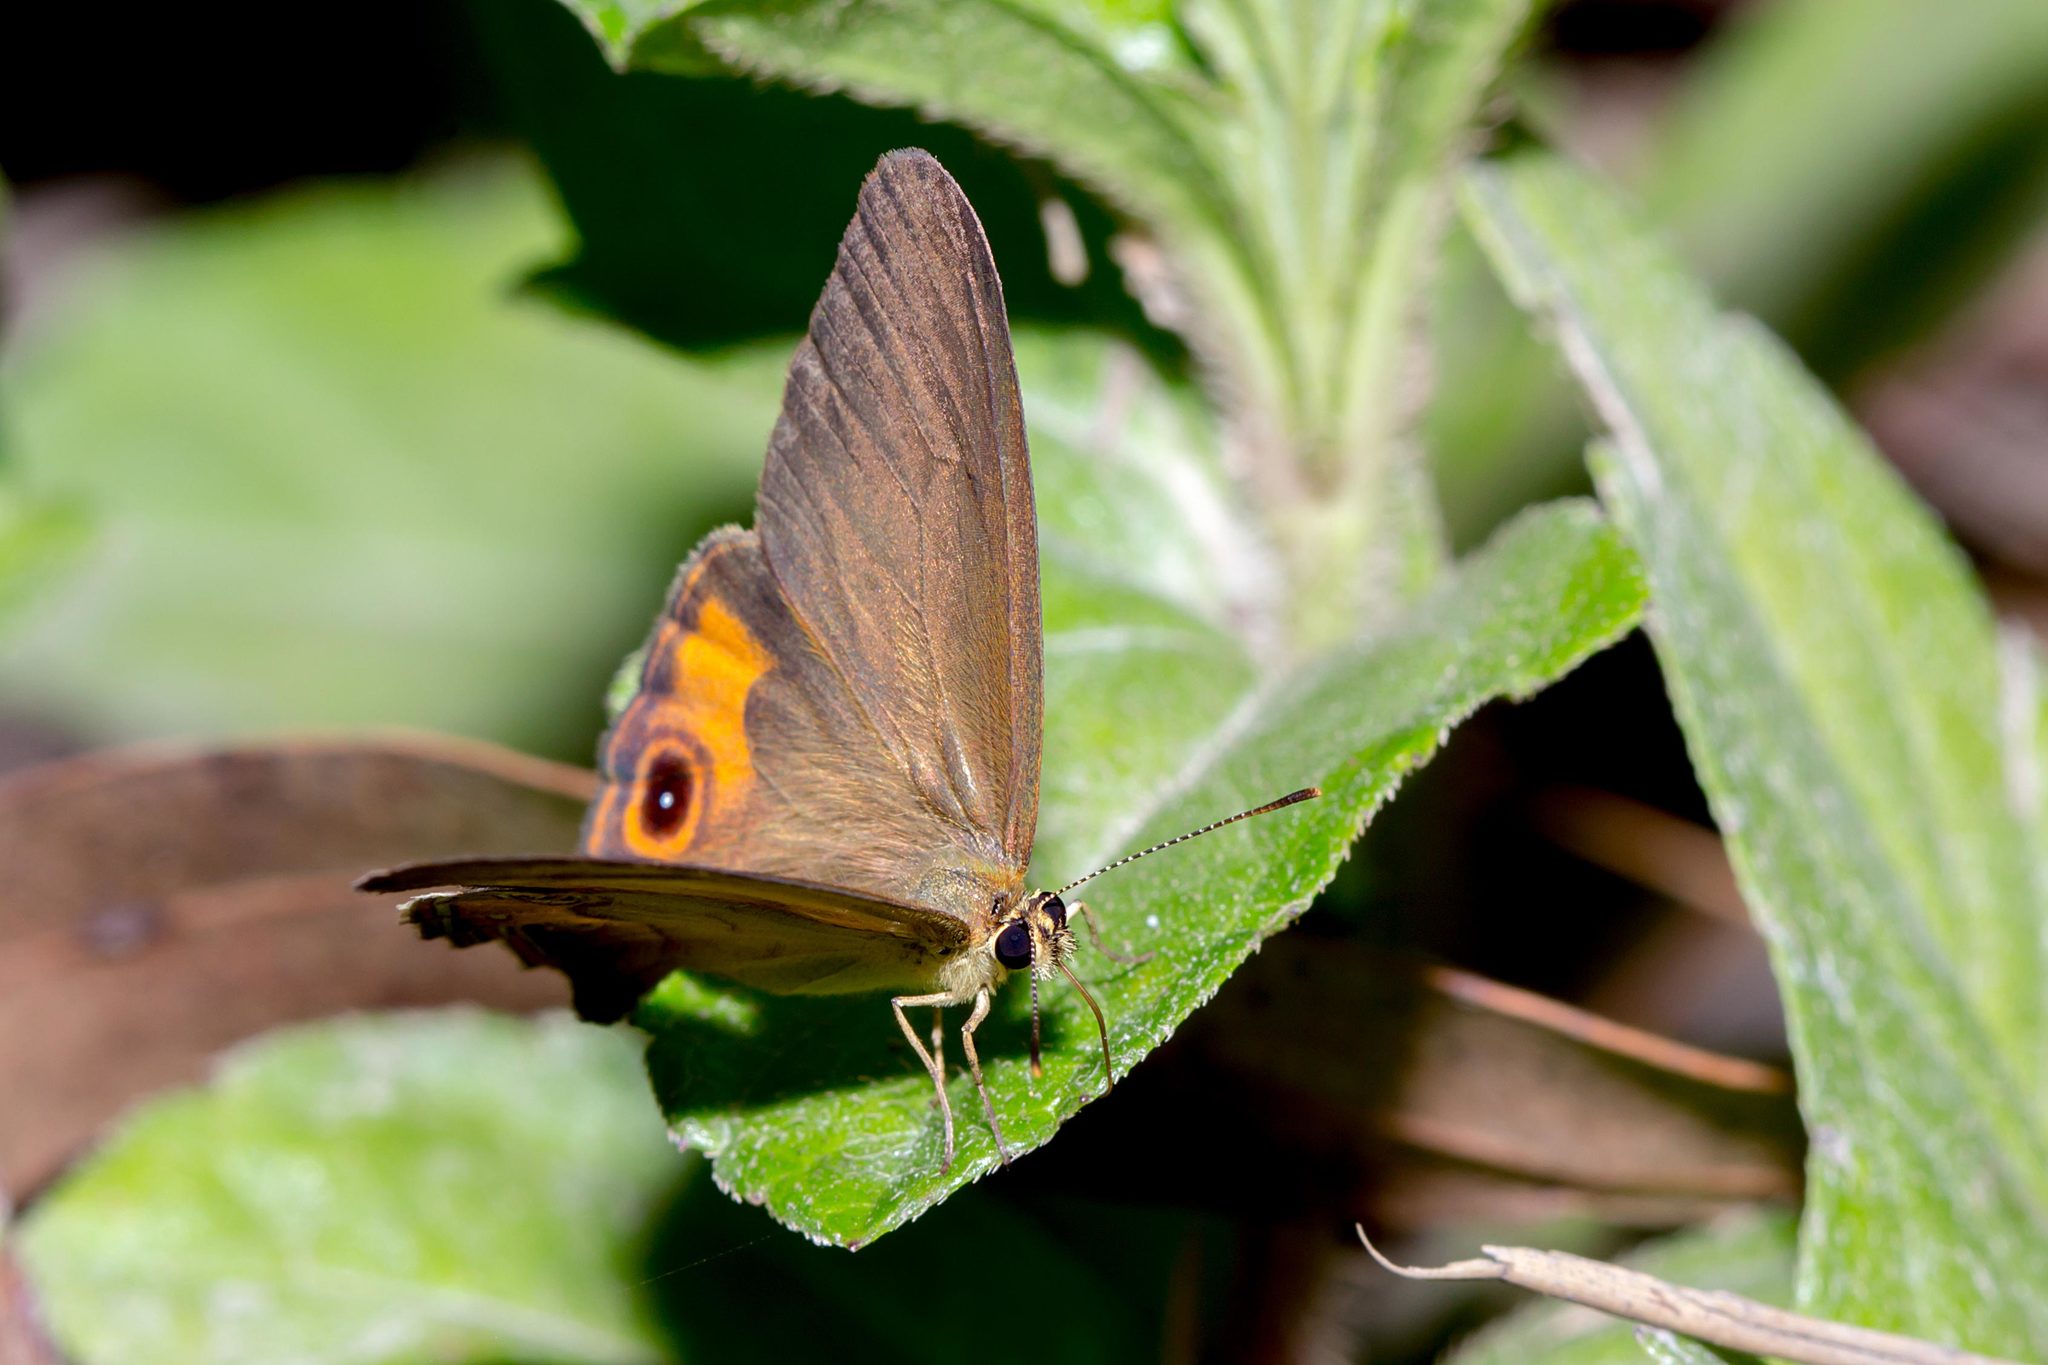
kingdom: Animalia
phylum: Arthropoda
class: Insecta
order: Lepidoptera
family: Nymphalidae
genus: Hypocysta
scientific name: Hypocysta metirius
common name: Brown ringlet
